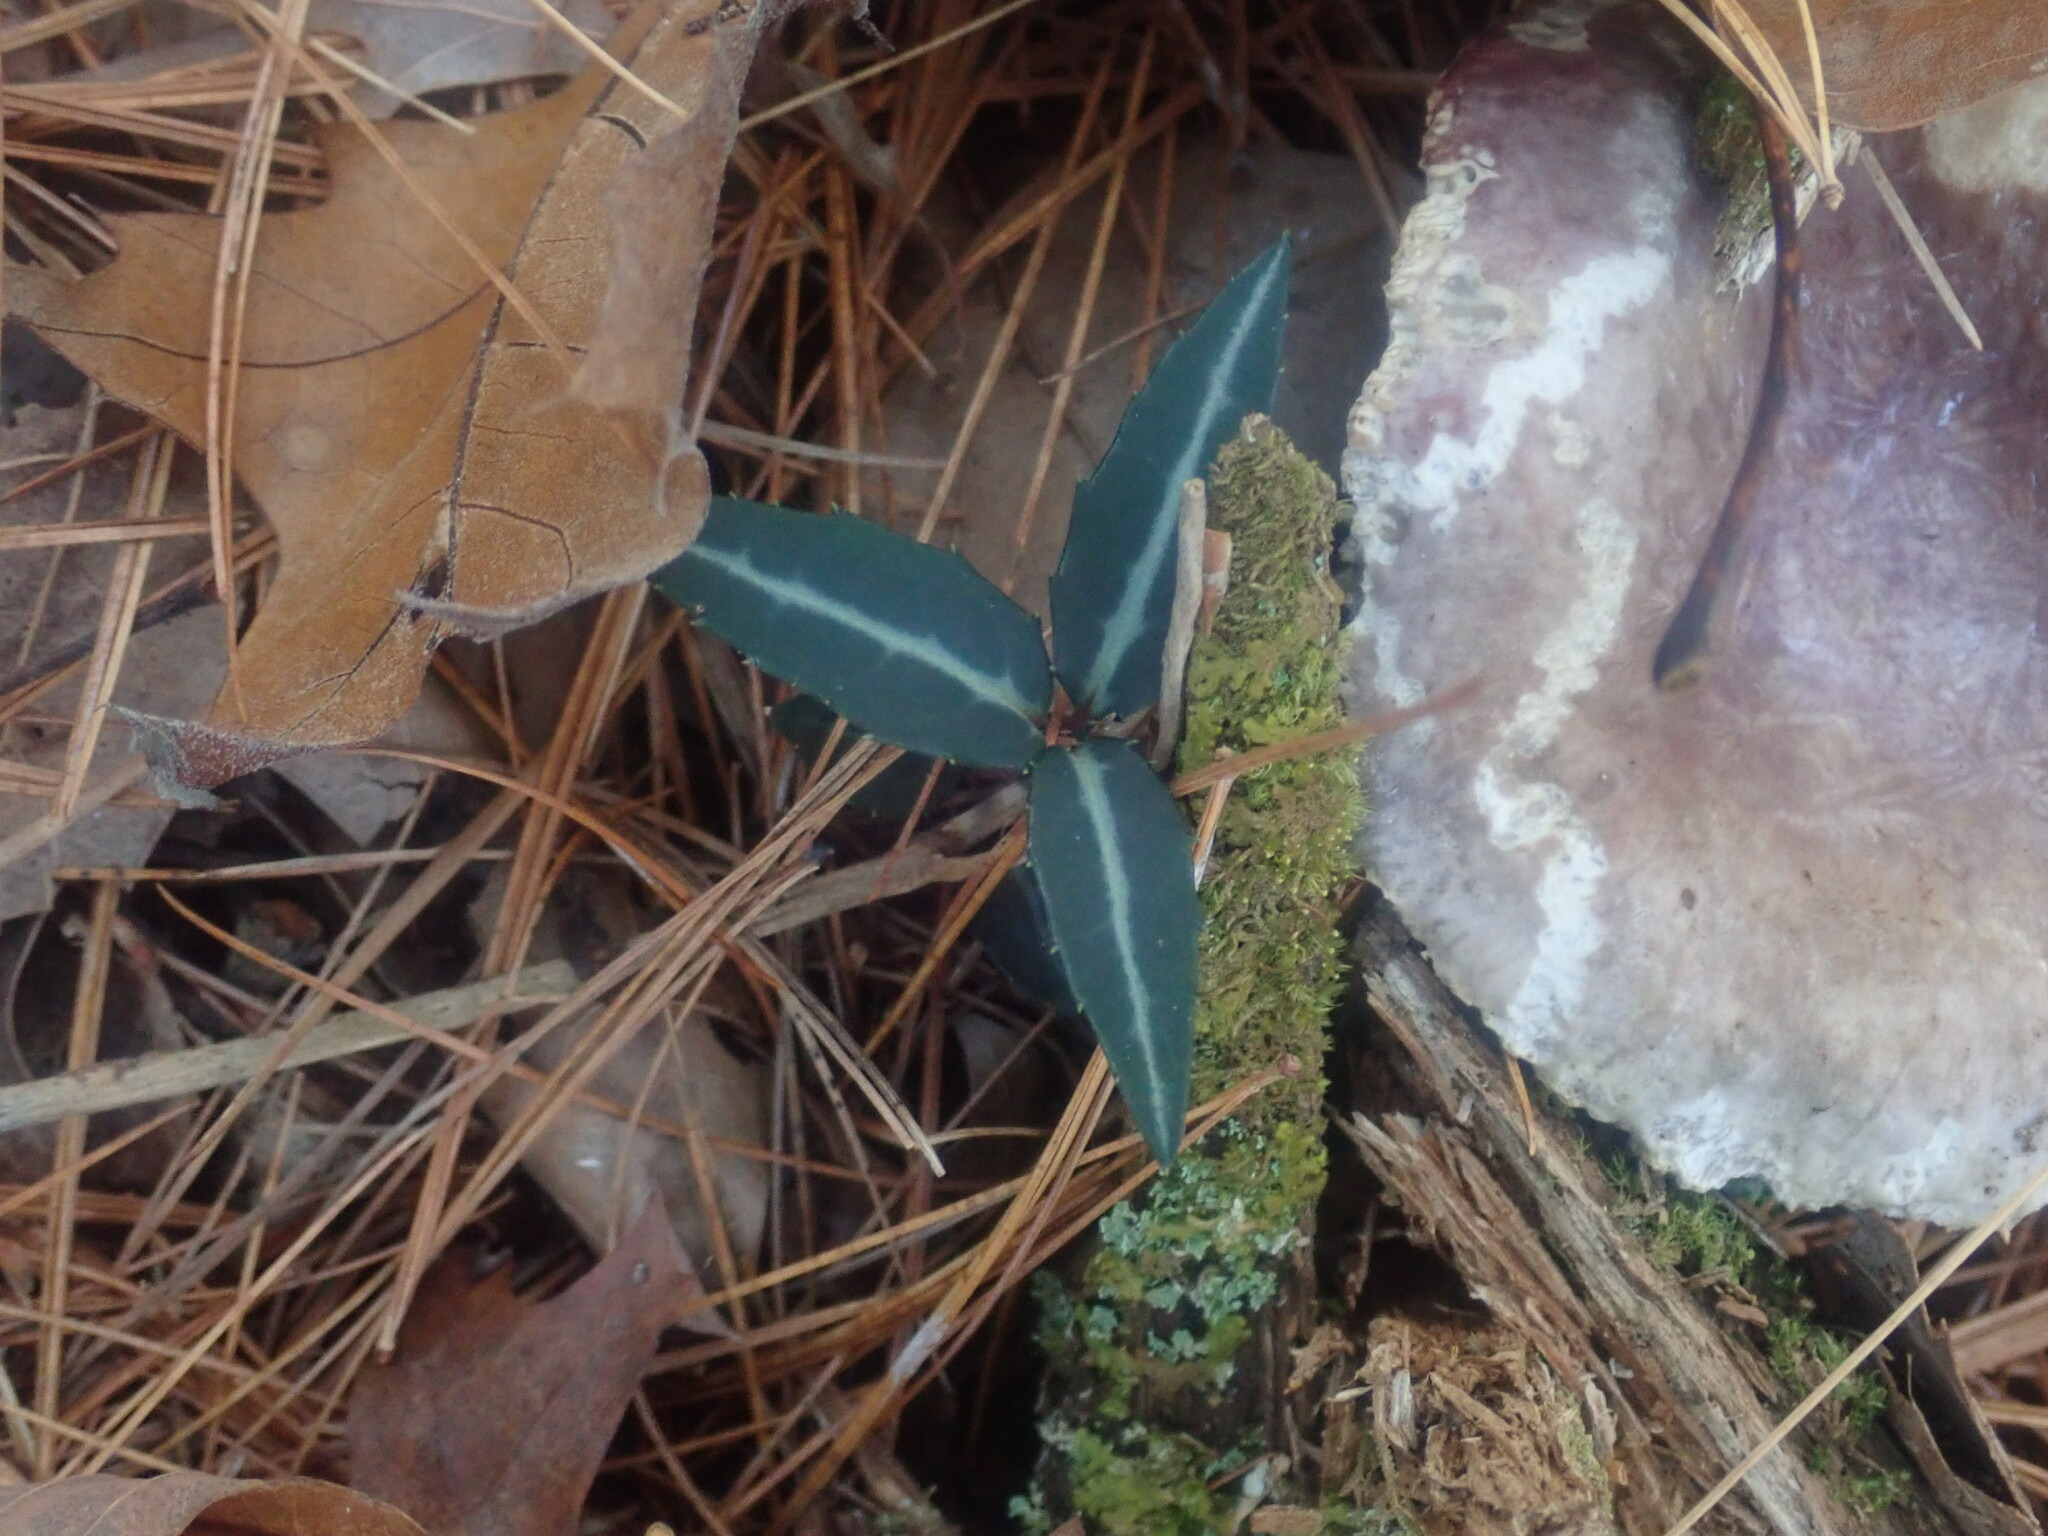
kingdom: Plantae
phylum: Tracheophyta
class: Magnoliopsida
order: Ericales
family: Ericaceae
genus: Chimaphila
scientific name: Chimaphila maculata
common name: Spotted pipsissewa
